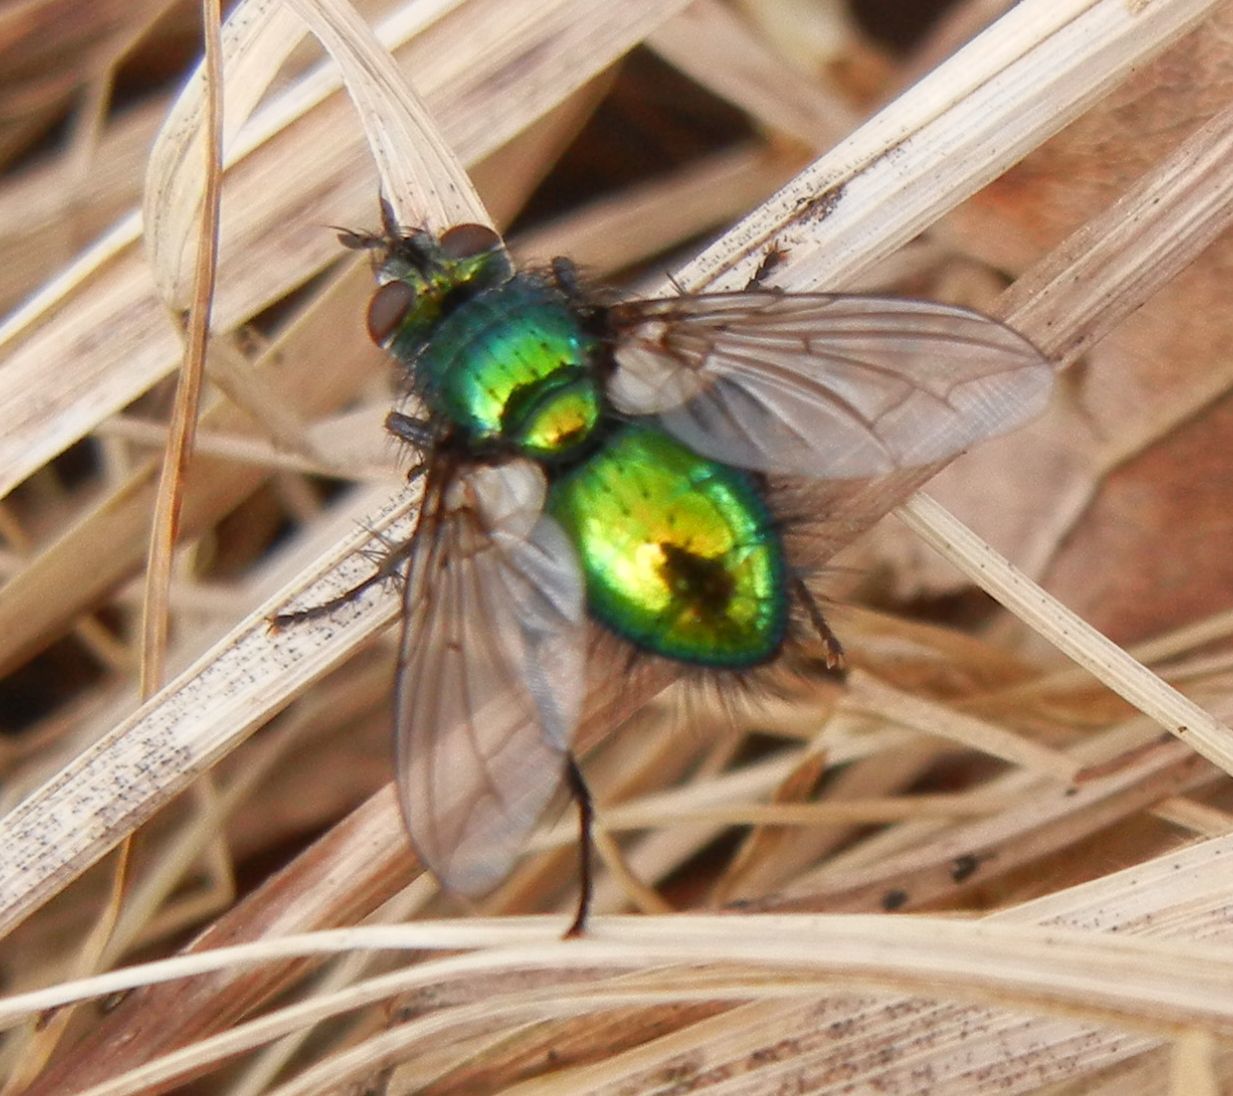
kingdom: Animalia
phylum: Arthropoda
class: Insecta
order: Diptera
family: Tachinidae
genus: Gymnocheta
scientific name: Gymnocheta viridis
